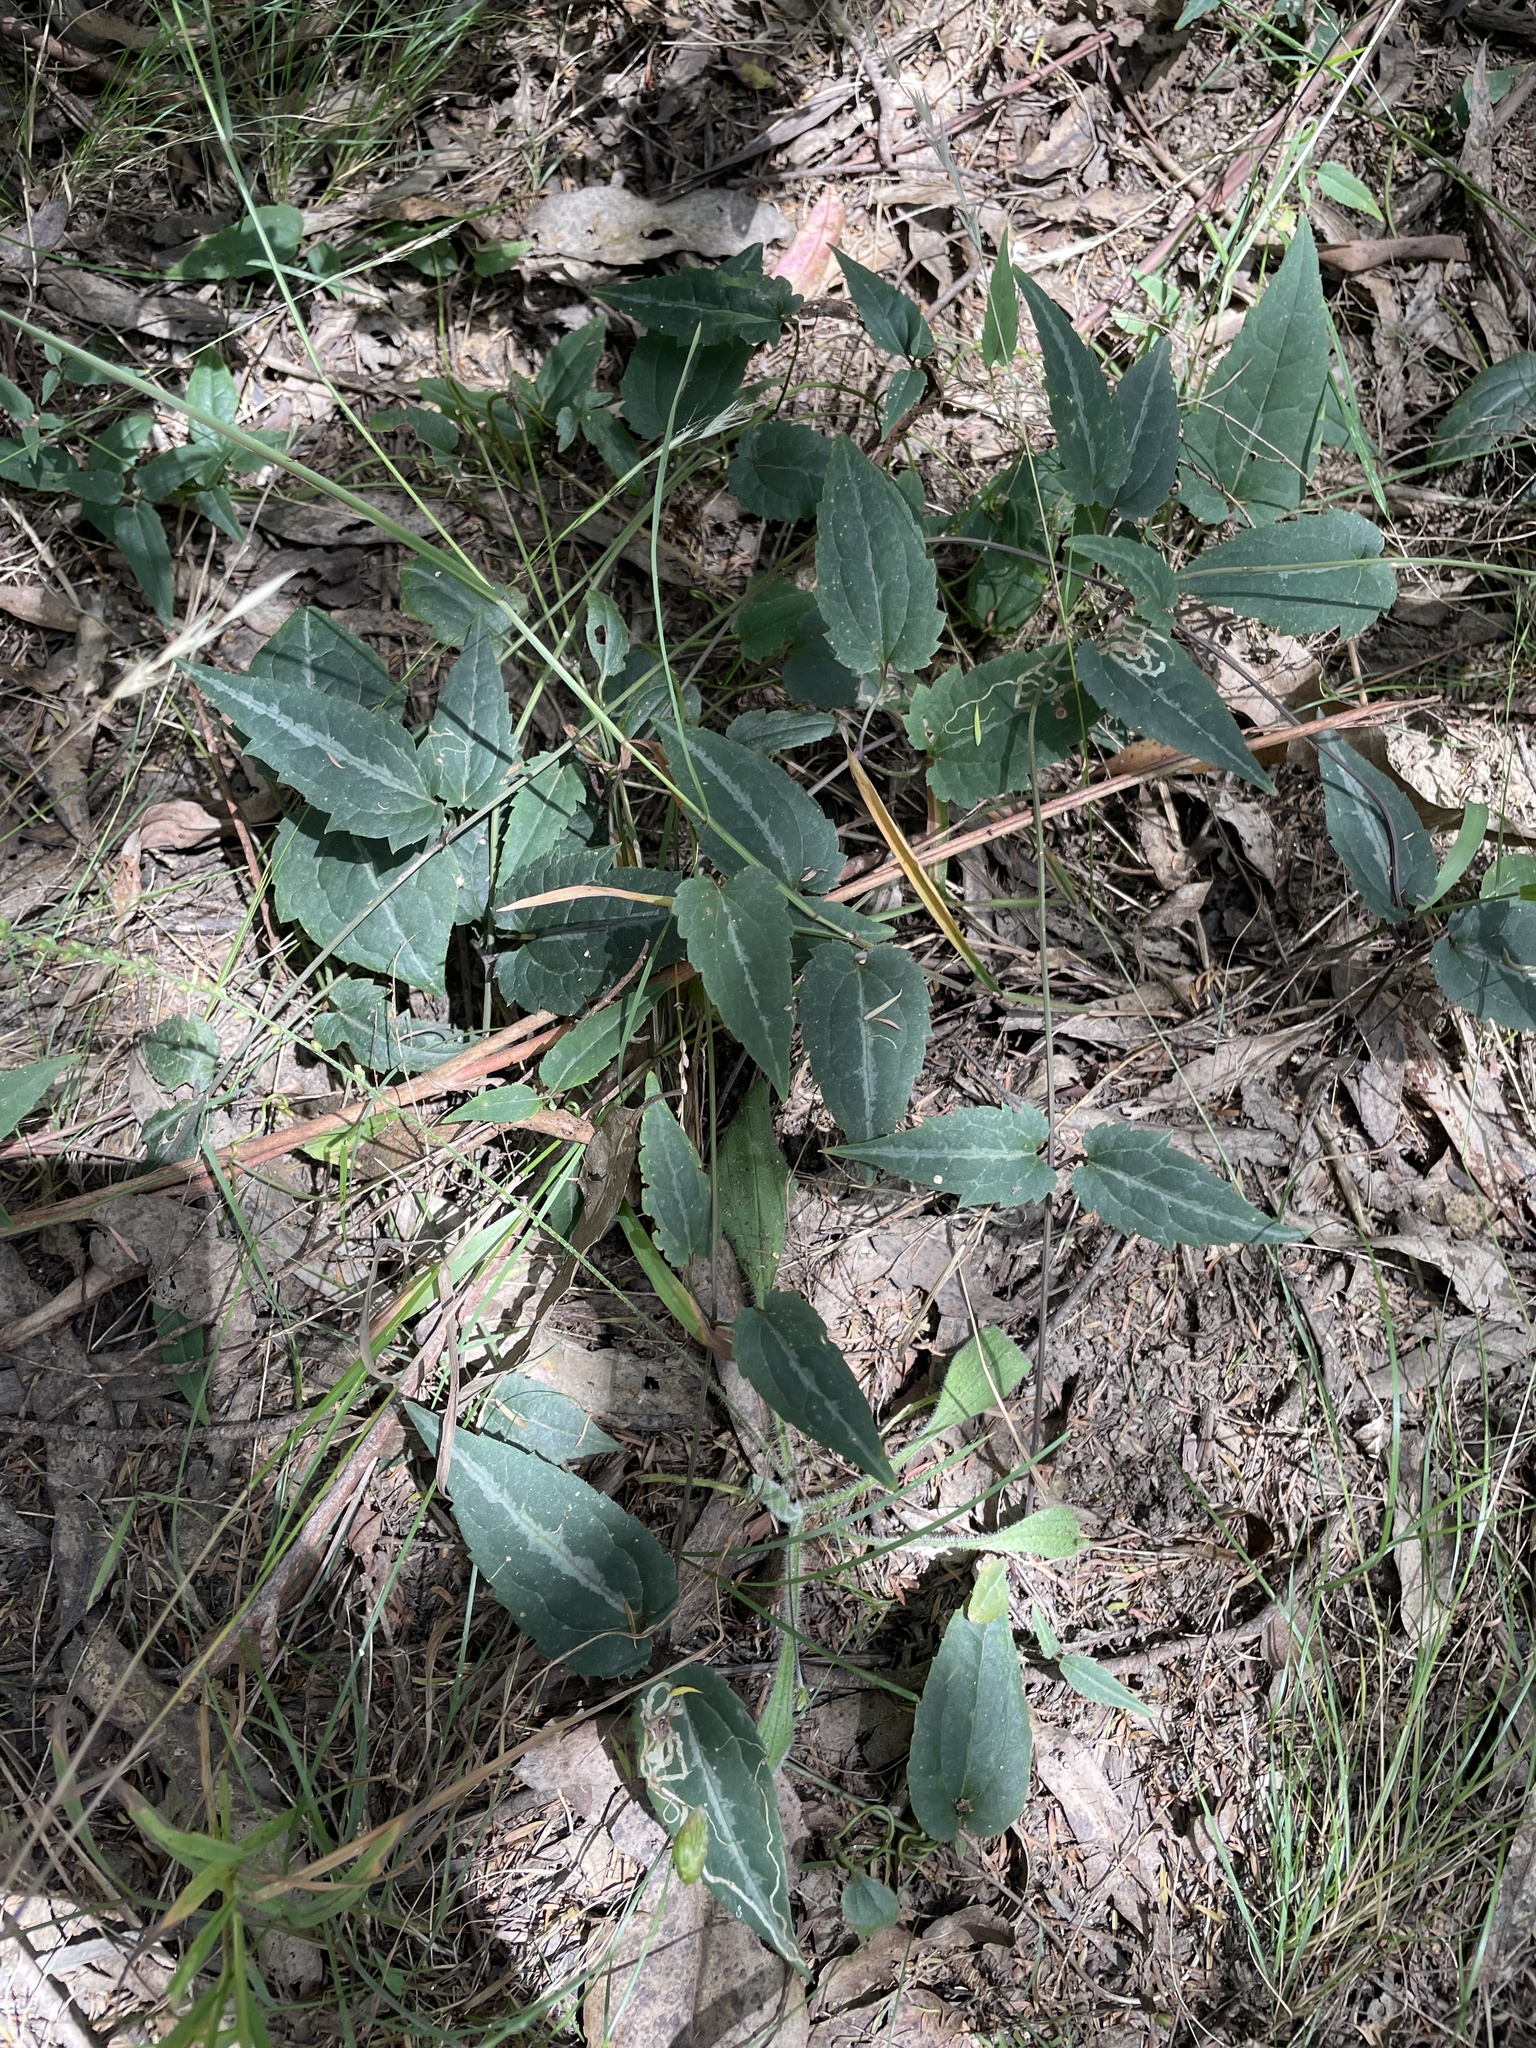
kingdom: Plantae
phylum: Tracheophyta
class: Magnoliopsida
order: Ranunculales
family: Ranunculaceae
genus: Clematis
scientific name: Clematis aristata
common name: Mountain clematis
